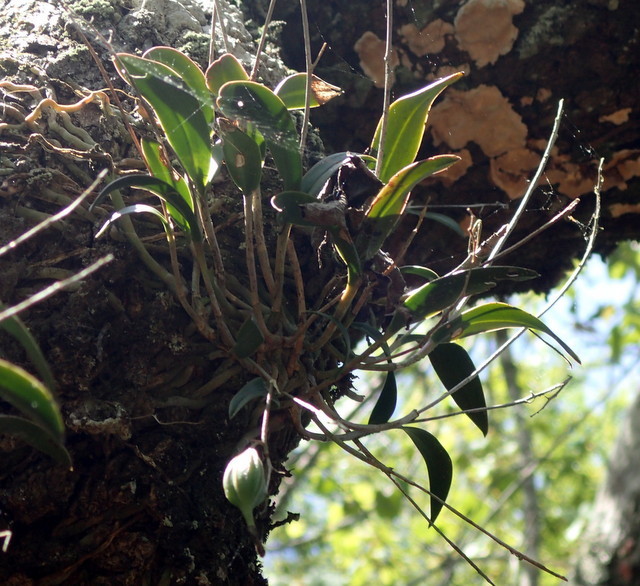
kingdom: Plantae
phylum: Tracheophyta
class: Liliopsida
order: Asparagales
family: Orchidaceae
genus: Epidendrum
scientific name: Epidendrum conopseum
